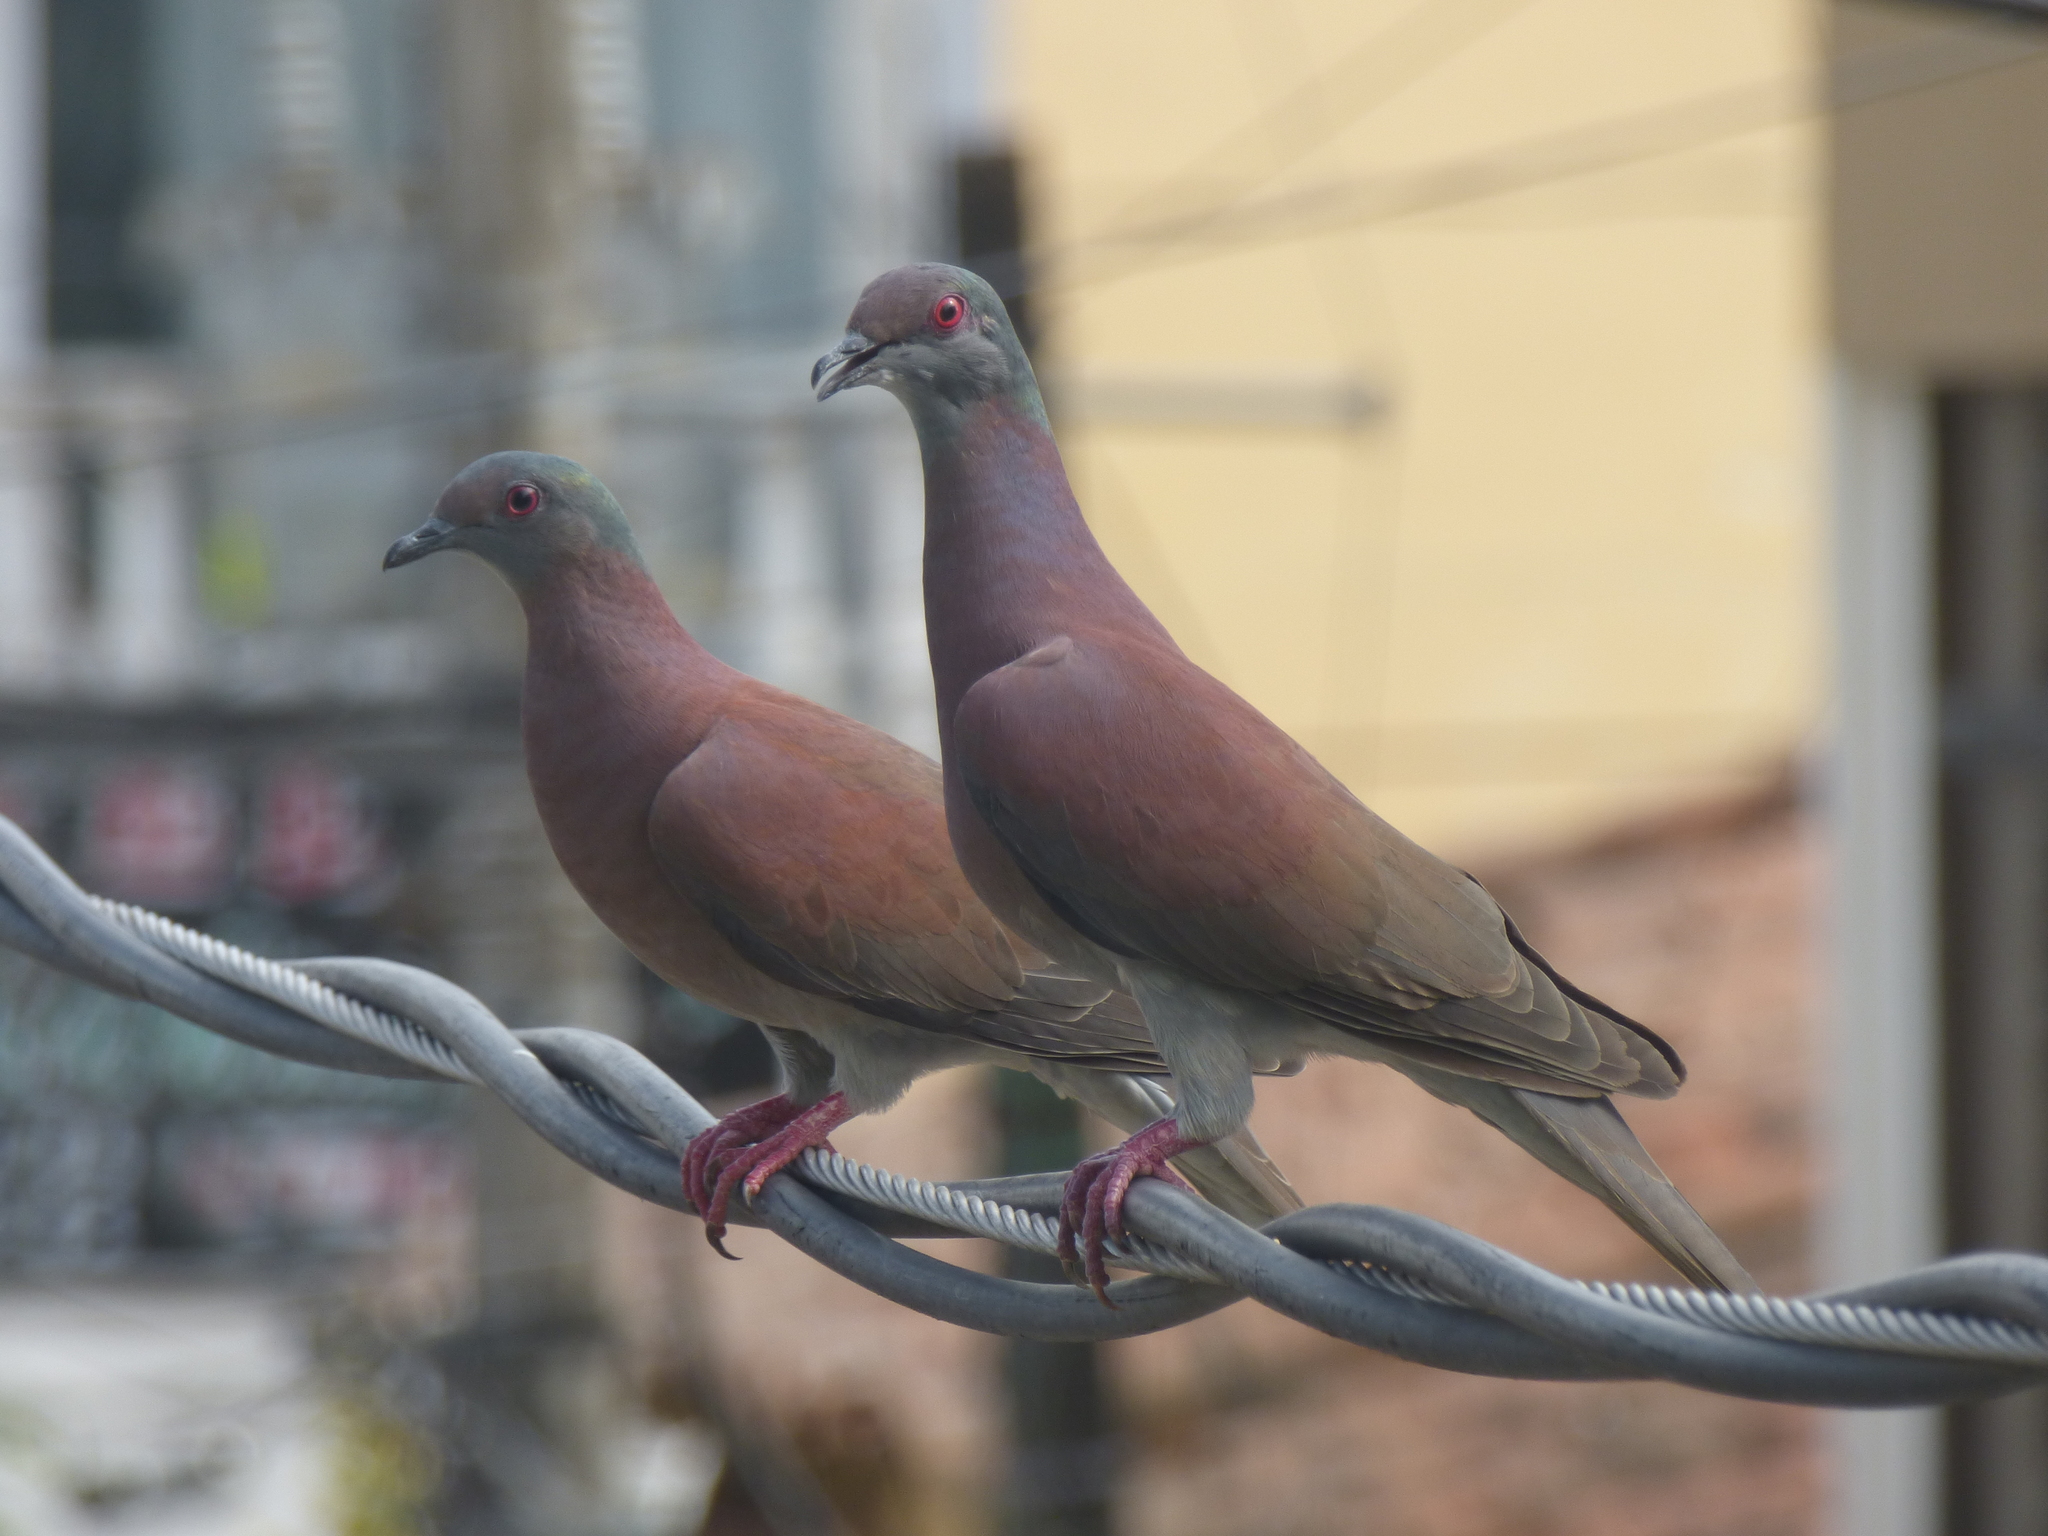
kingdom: Animalia
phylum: Chordata
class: Aves
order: Columbiformes
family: Columbidae
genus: Patagioenas
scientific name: Patagioenas cayennensis
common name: Pale-vented pigeon
